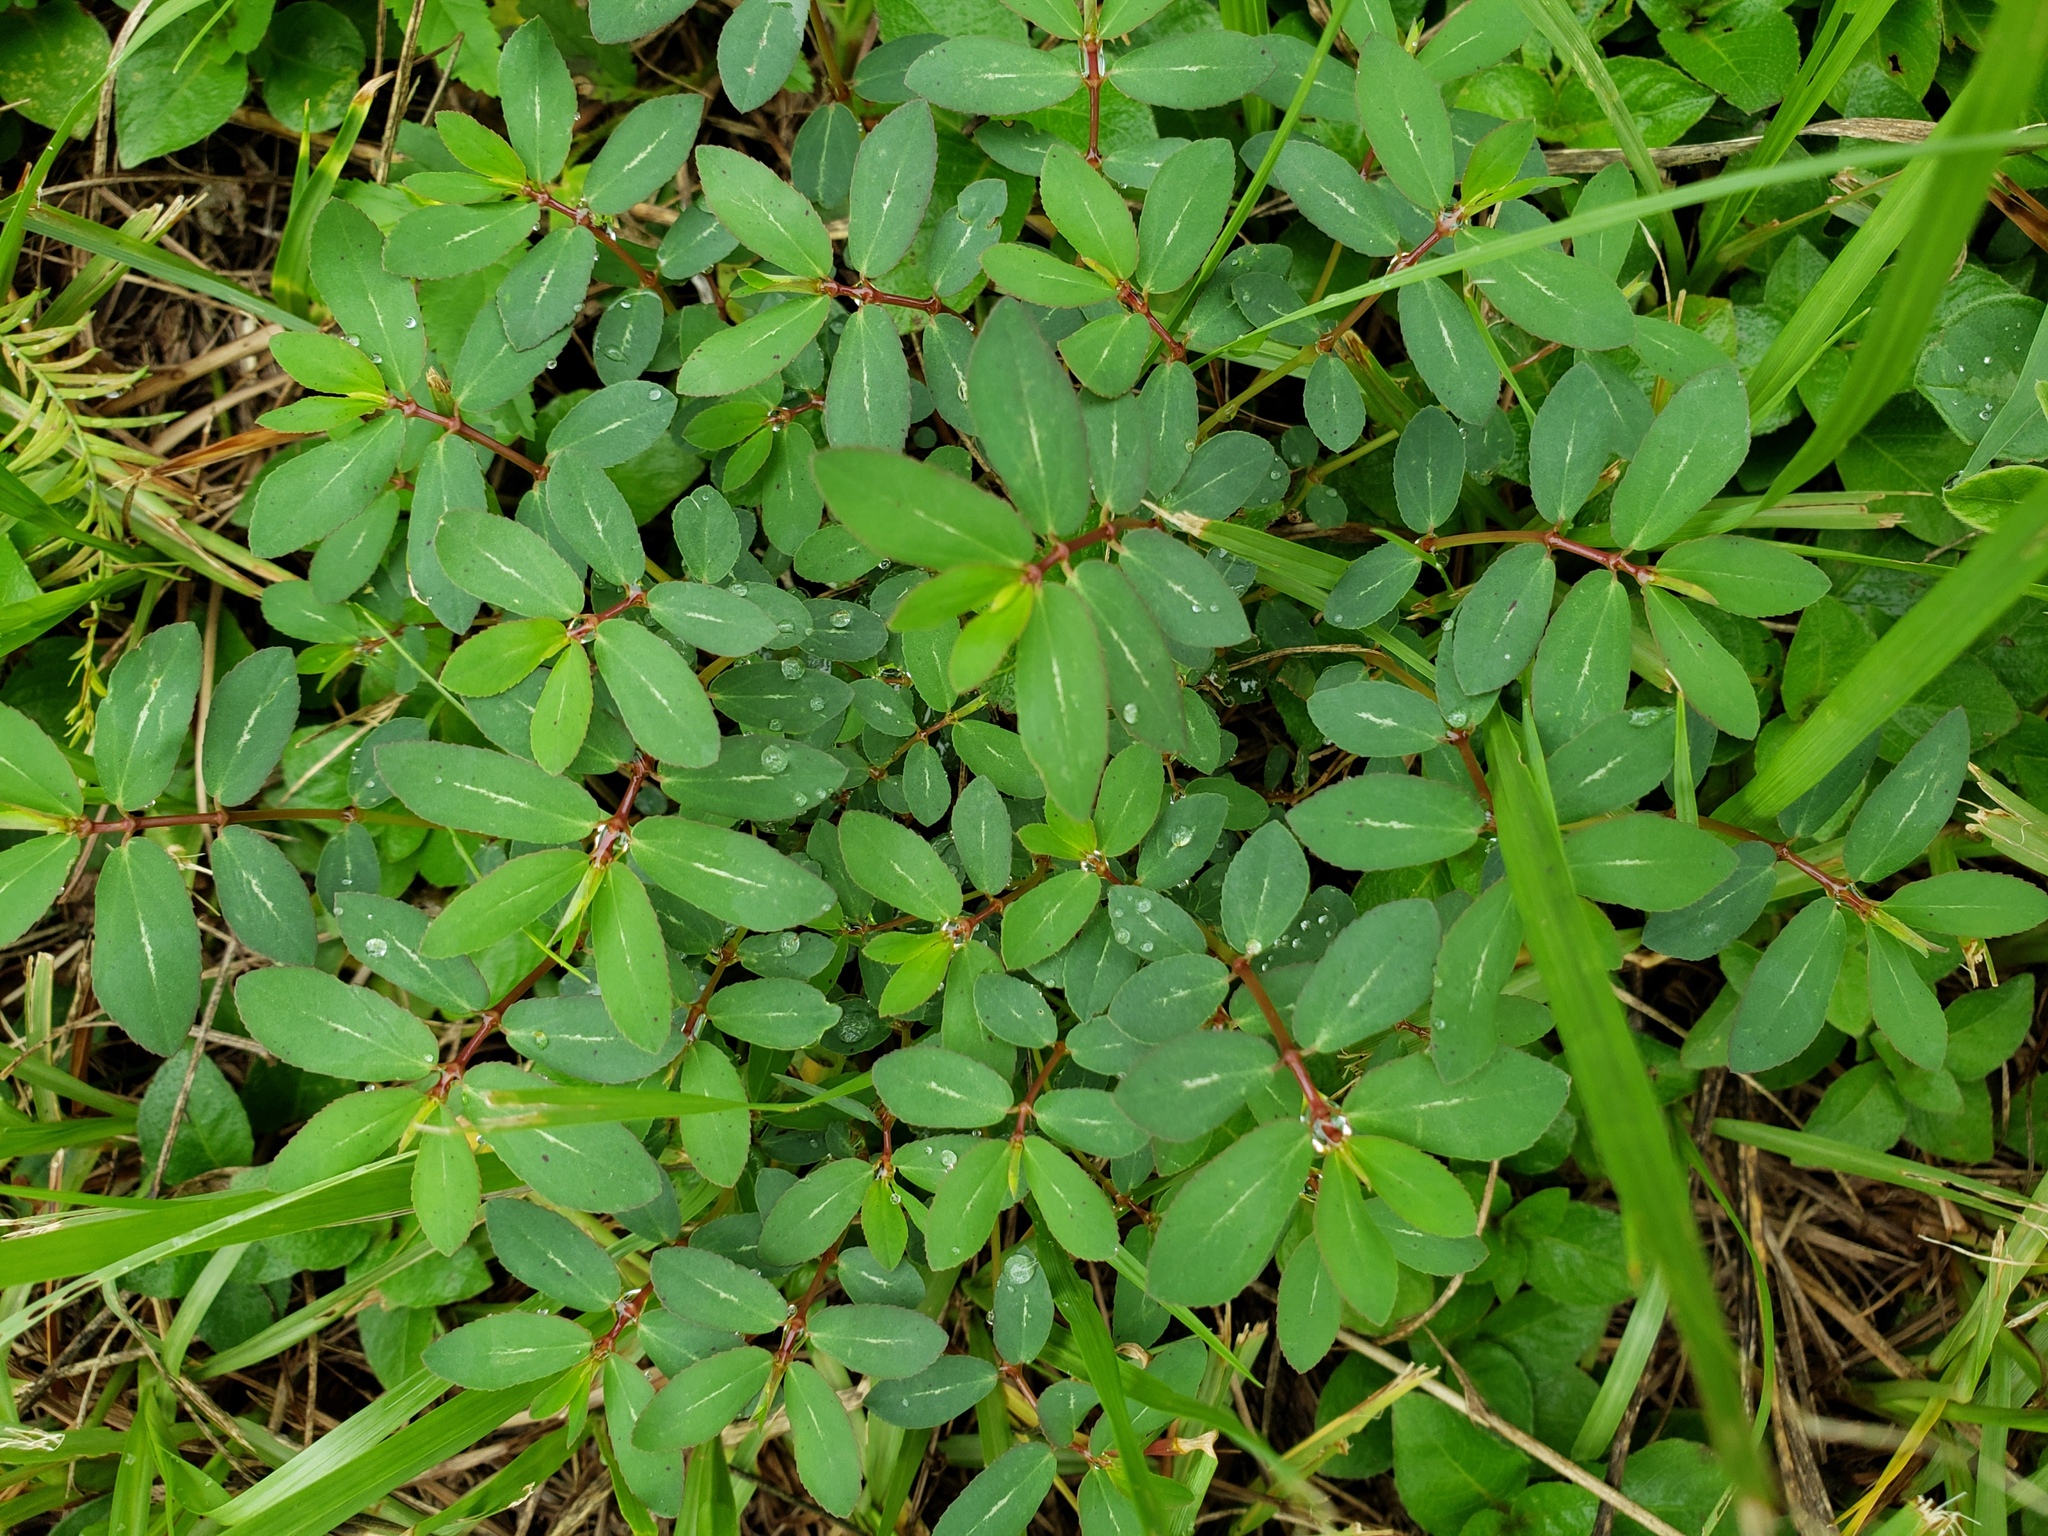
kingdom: Plantae
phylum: Tracheophyta
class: Magnoliopsida
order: Malpighiales
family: Euphorbiaceae
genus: Euphorbia
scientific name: Euphorbia hyssopifolia
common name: Hyssopleaf sandmat
